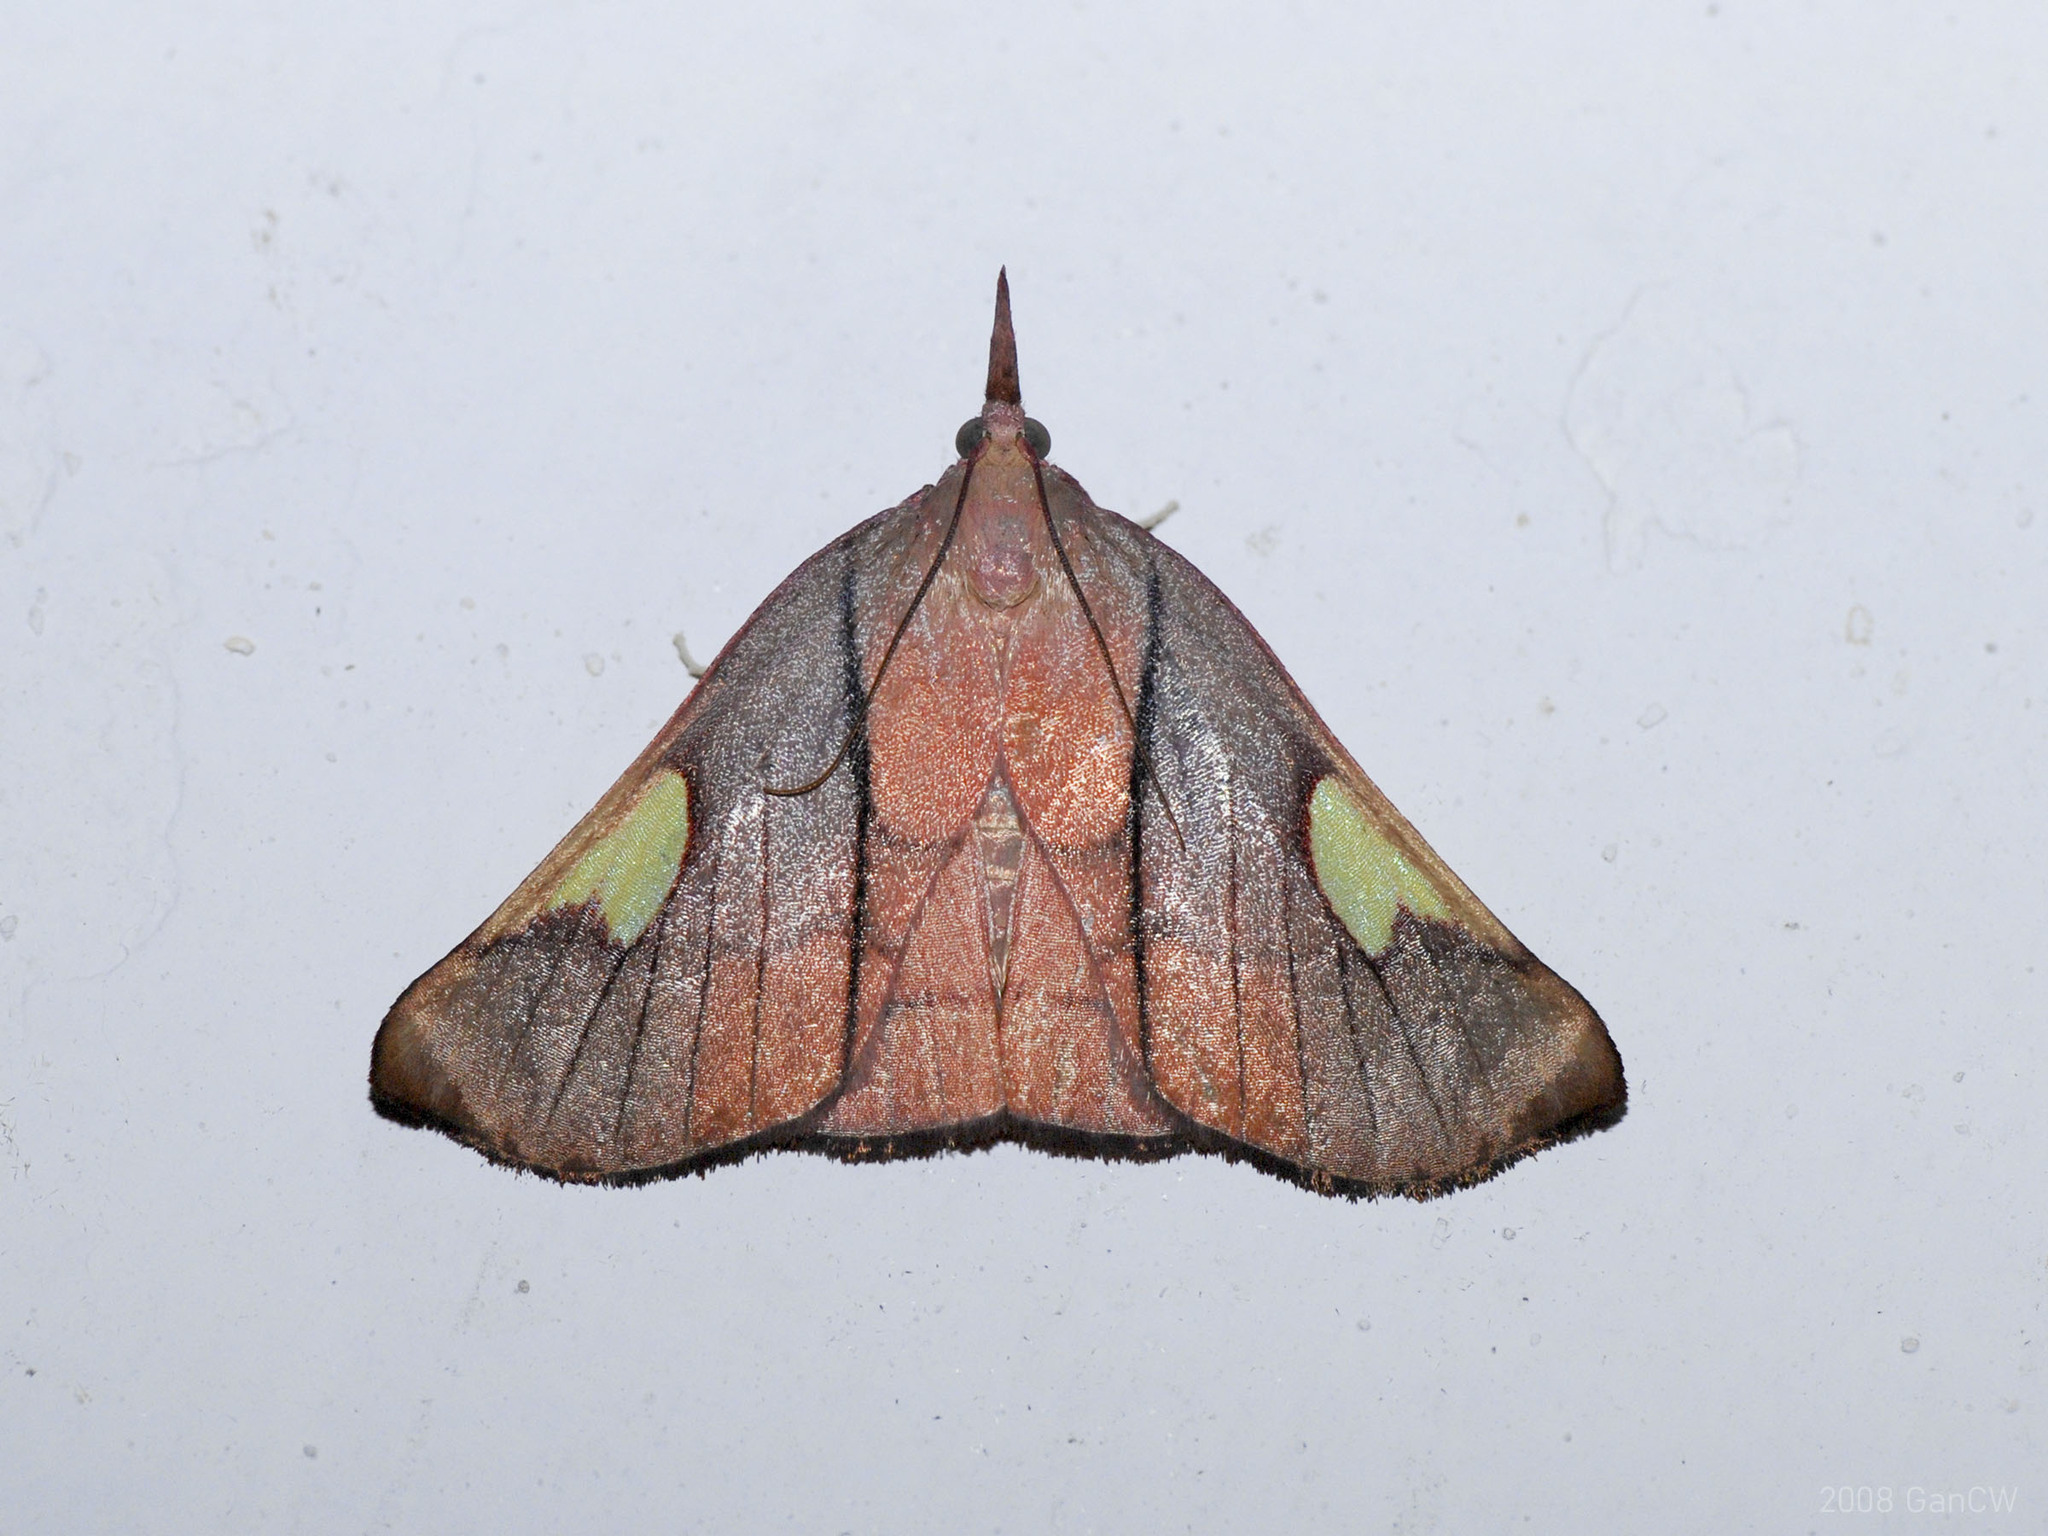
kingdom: Animalia
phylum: Arthropoda
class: Insecta
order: Lepidoptera
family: Pyralidae
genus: Orybina
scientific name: Orybina flaviplaga
